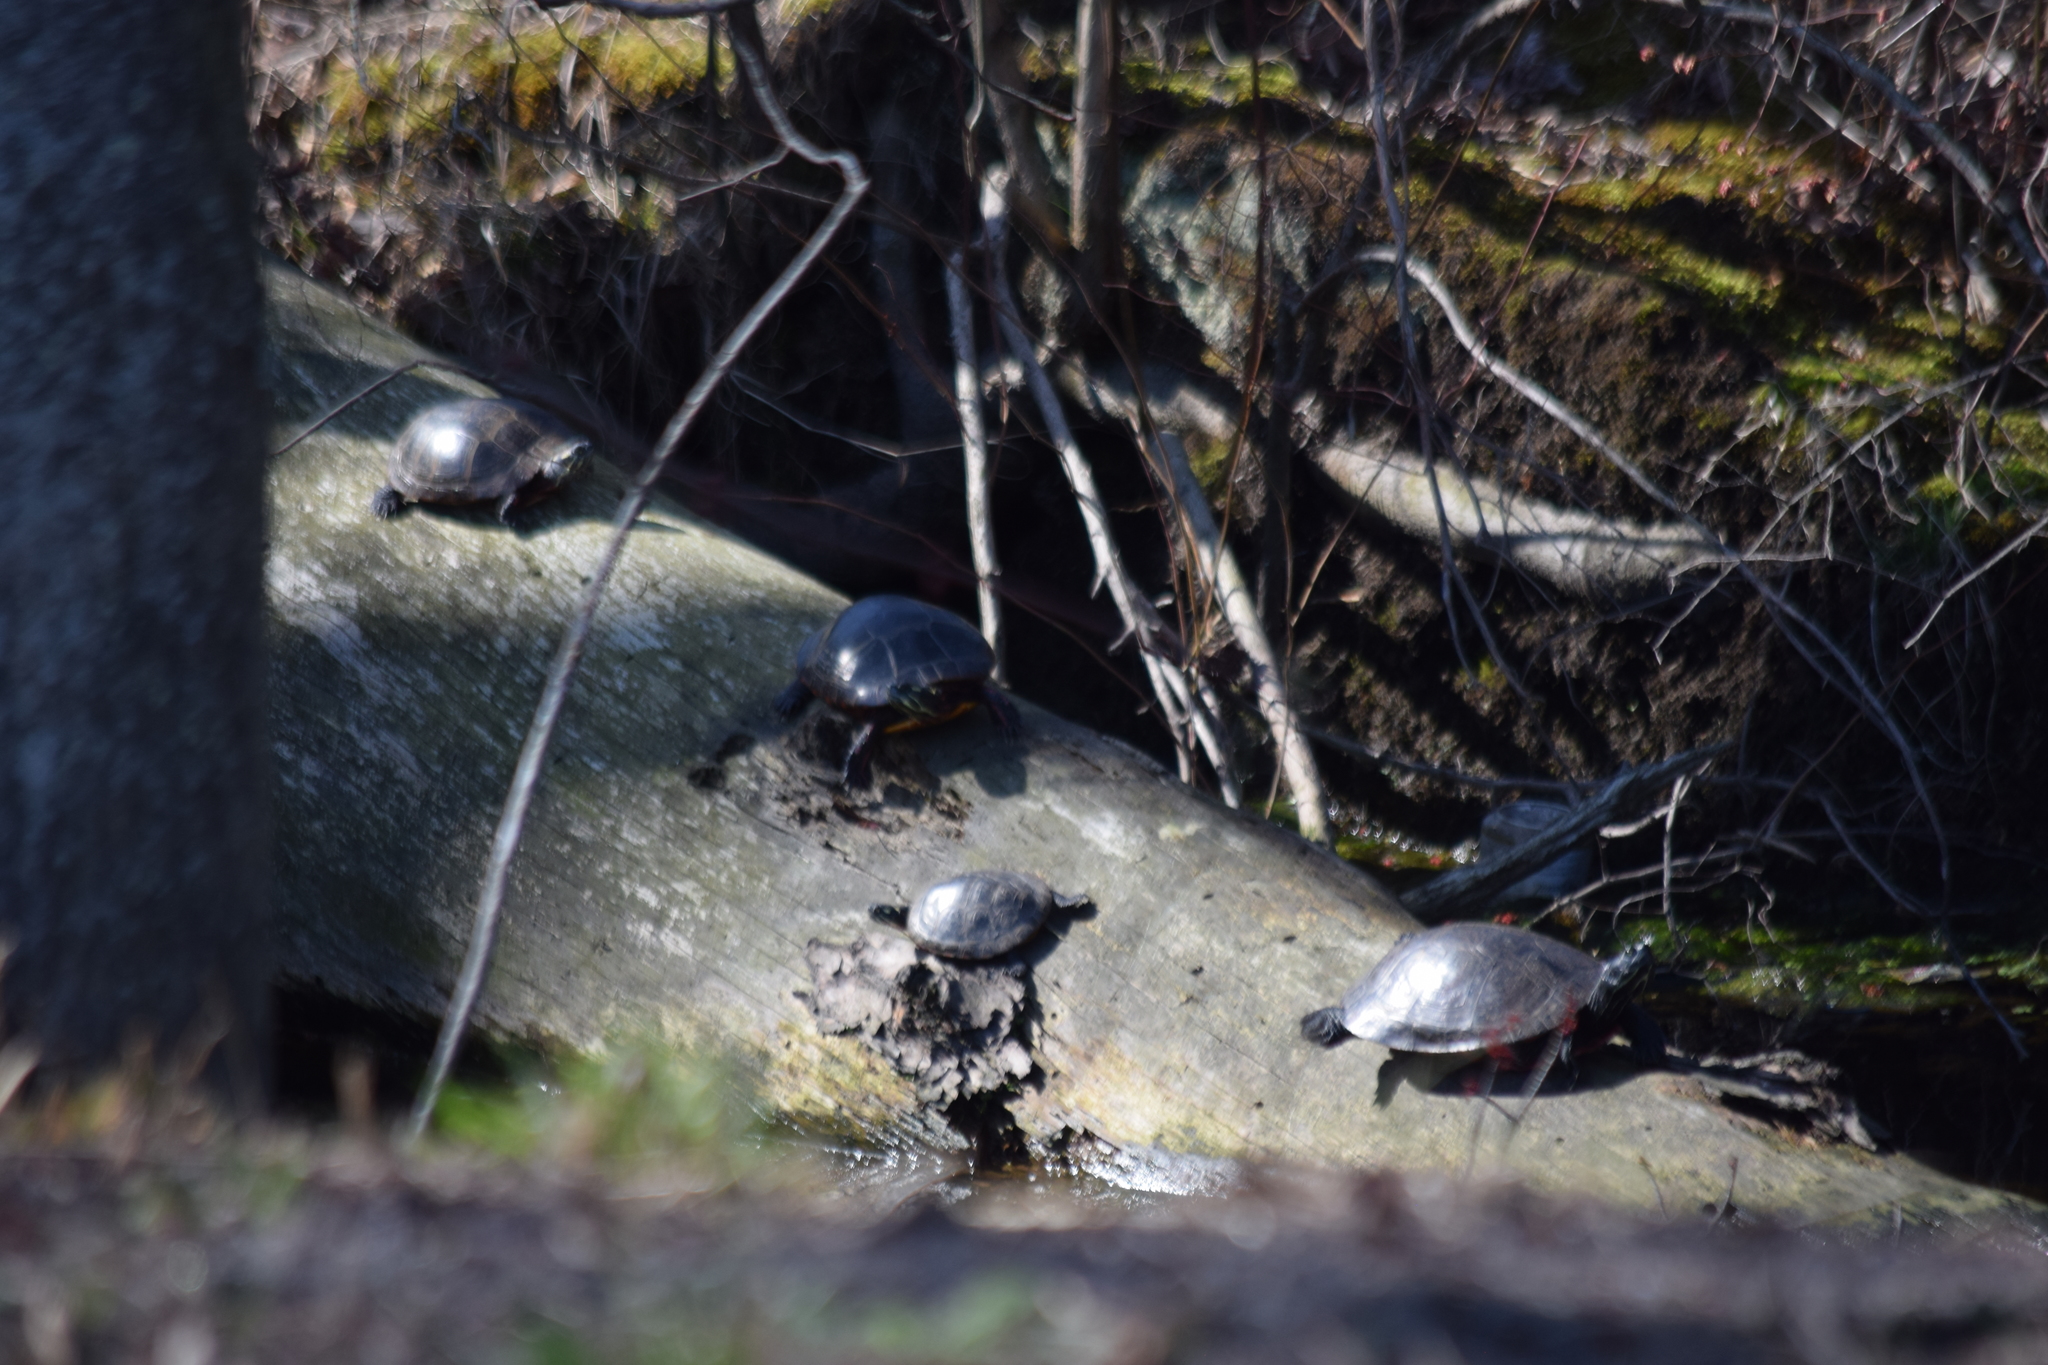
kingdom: Animalia
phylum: Chordata
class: Testudines
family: Emydidae
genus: Chrysemys
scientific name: Chrysemys picta
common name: Painted turtle
